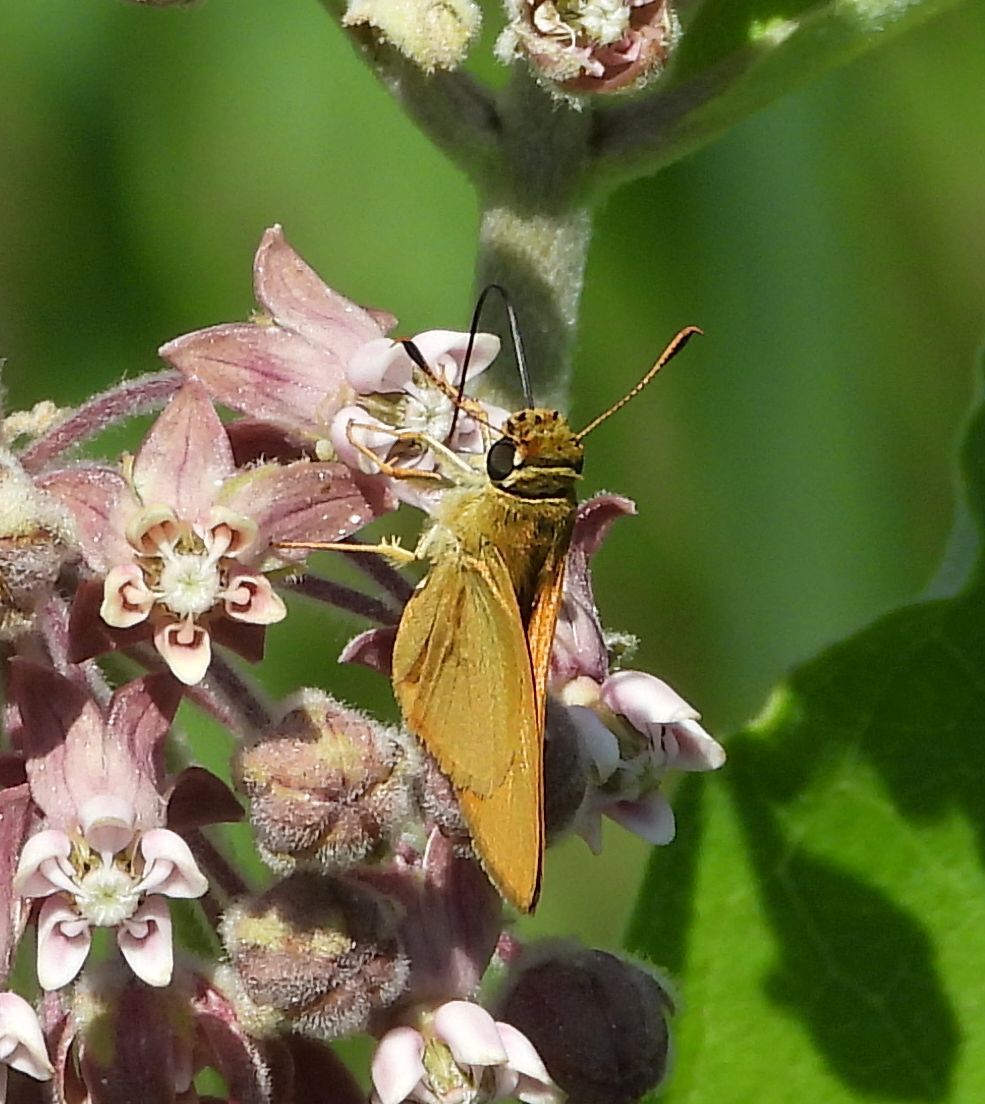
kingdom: Animalia
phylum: Arthropoda
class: Insecta
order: Lepidoptera
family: Hesperiidae
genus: Atrytone
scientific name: Atrytone delaware
